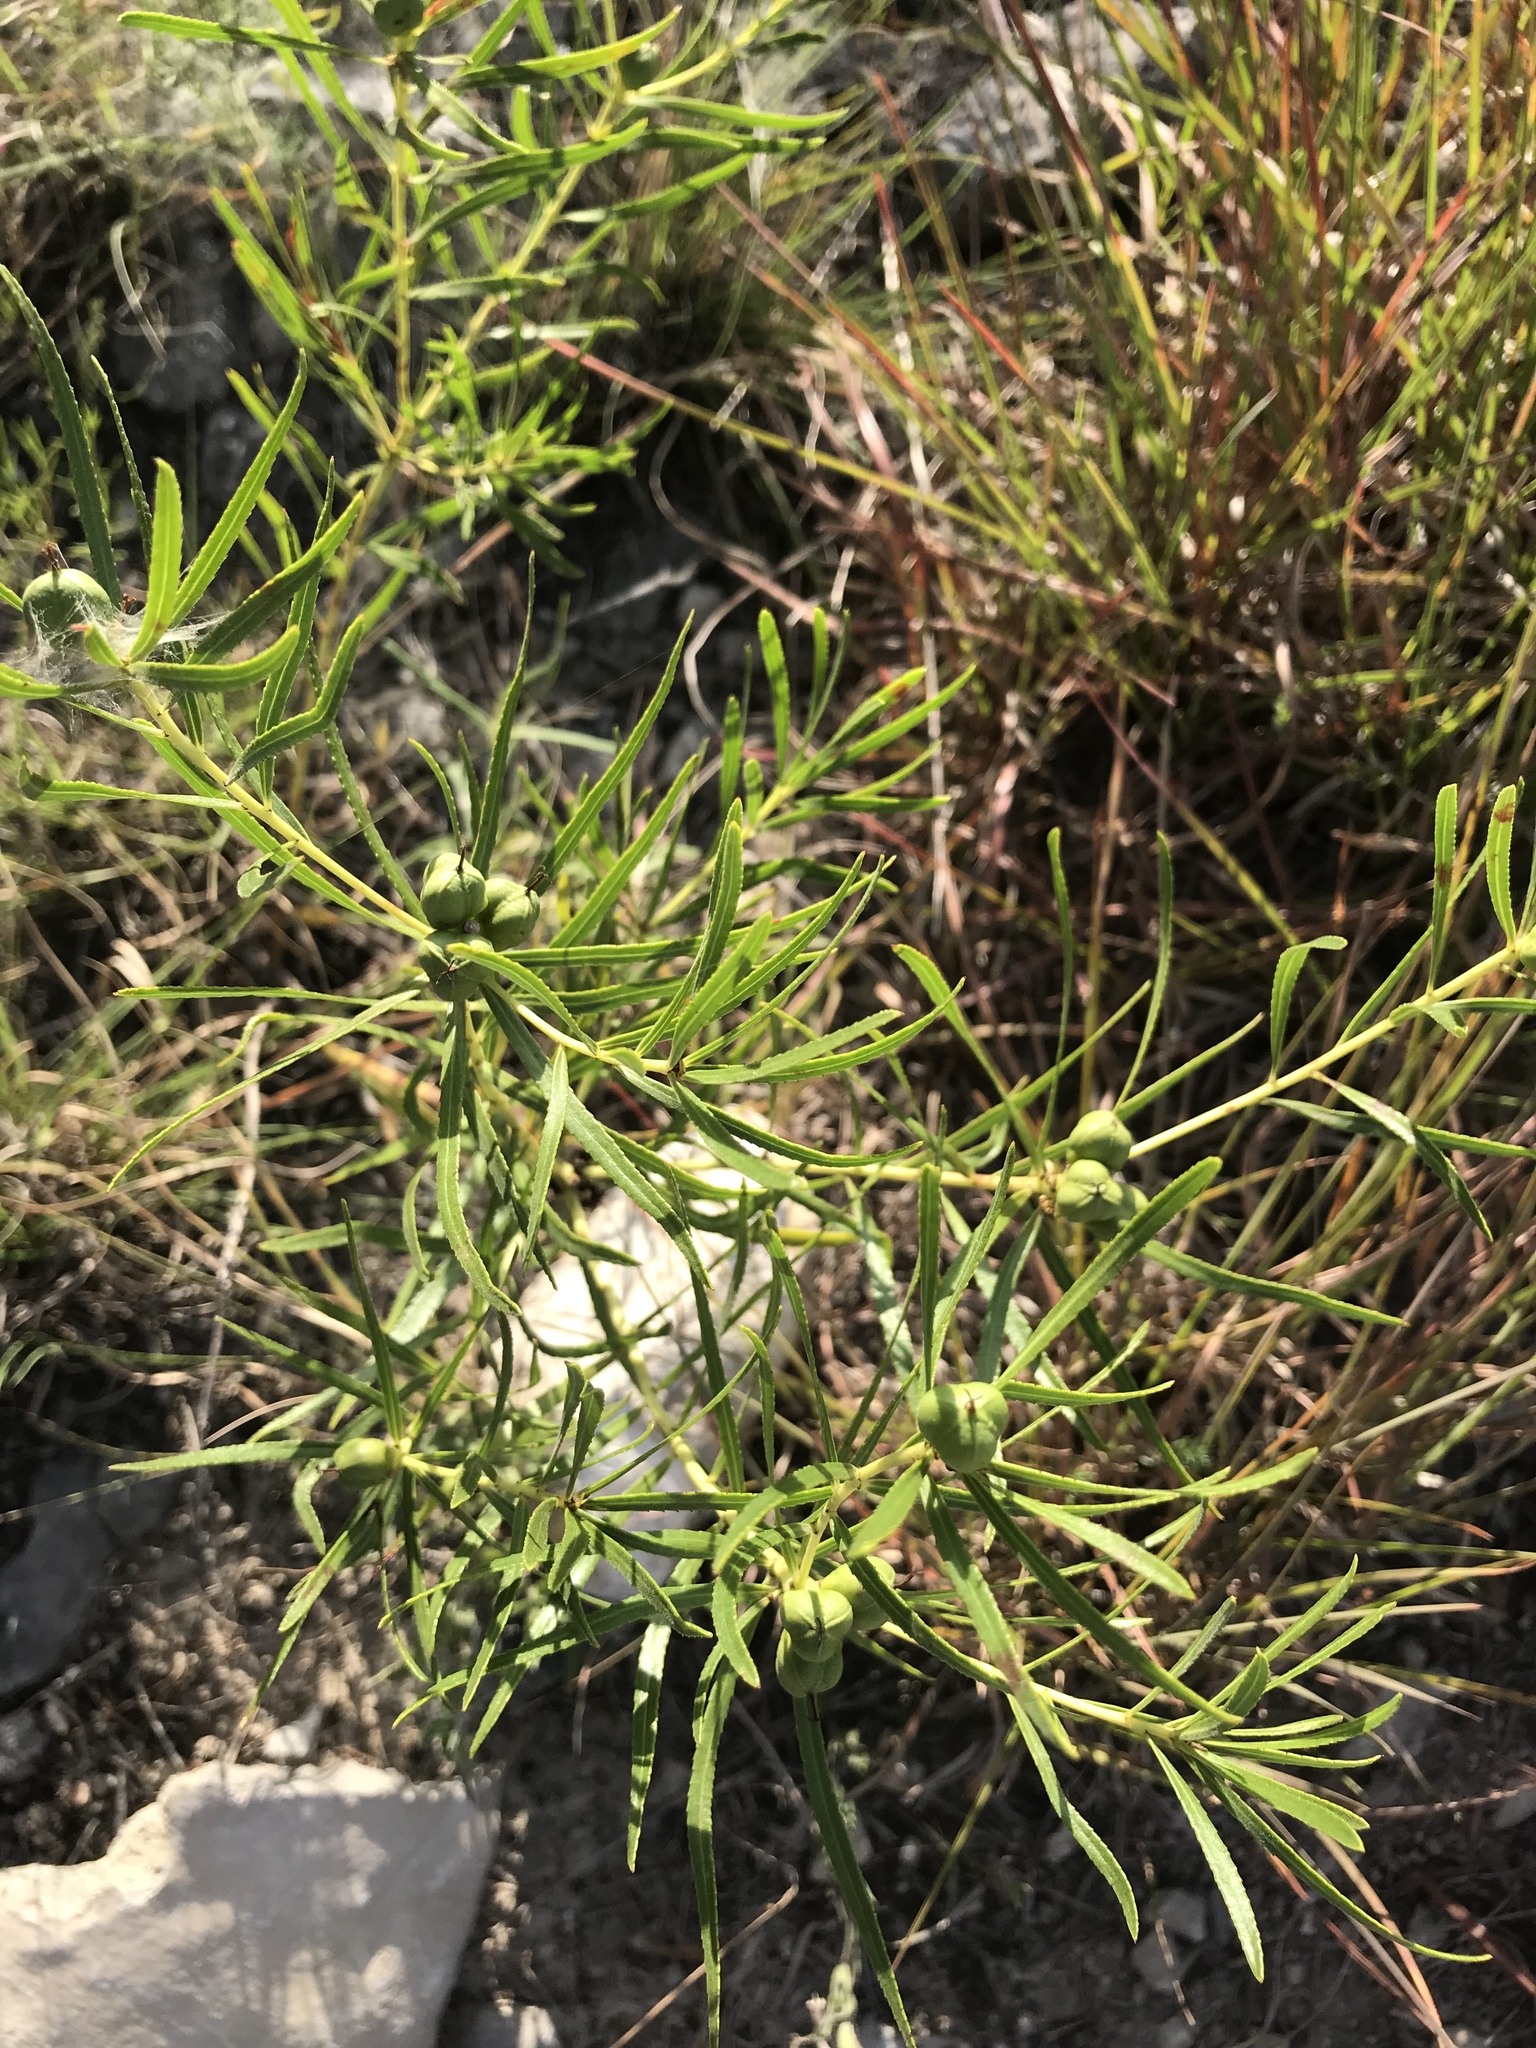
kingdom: Plantae
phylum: Tracheophyta
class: Magnoliopsida
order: Malpighiales
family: Euphorbiaceae
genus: Stillingia
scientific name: Stillingia texana
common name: Texas stillingia
